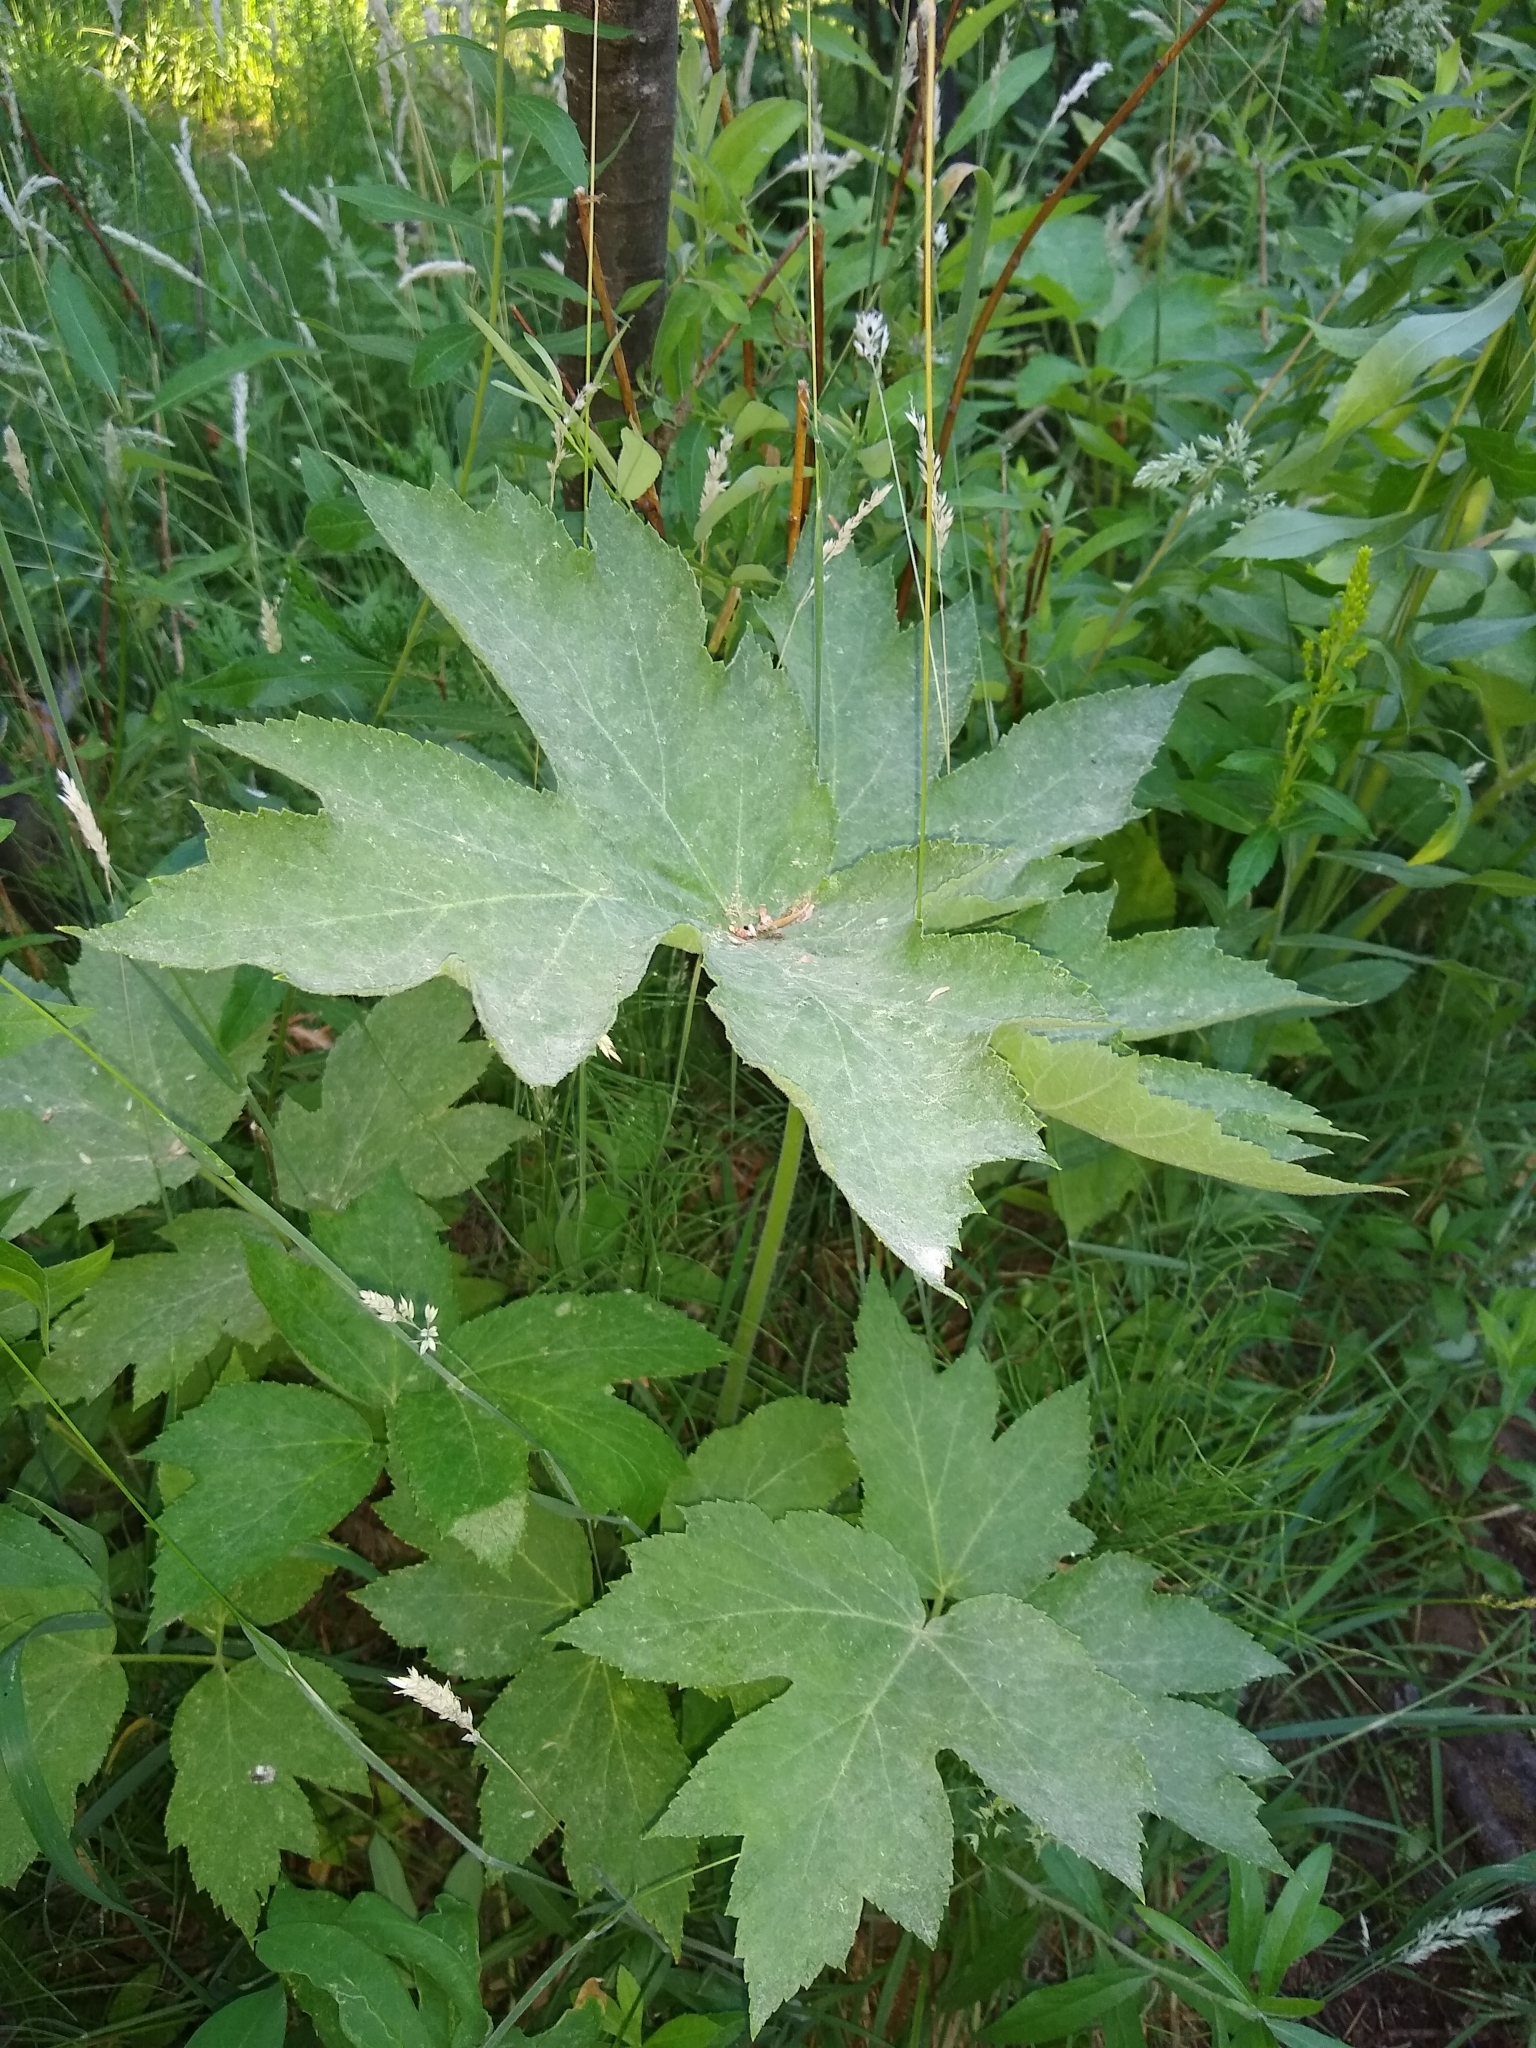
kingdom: Plantae
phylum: Tracheophyta
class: Magnoliopsida
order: Apiales
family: Apiaceae
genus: Heracleum
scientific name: Heracleum maximum
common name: American cow parsnip
